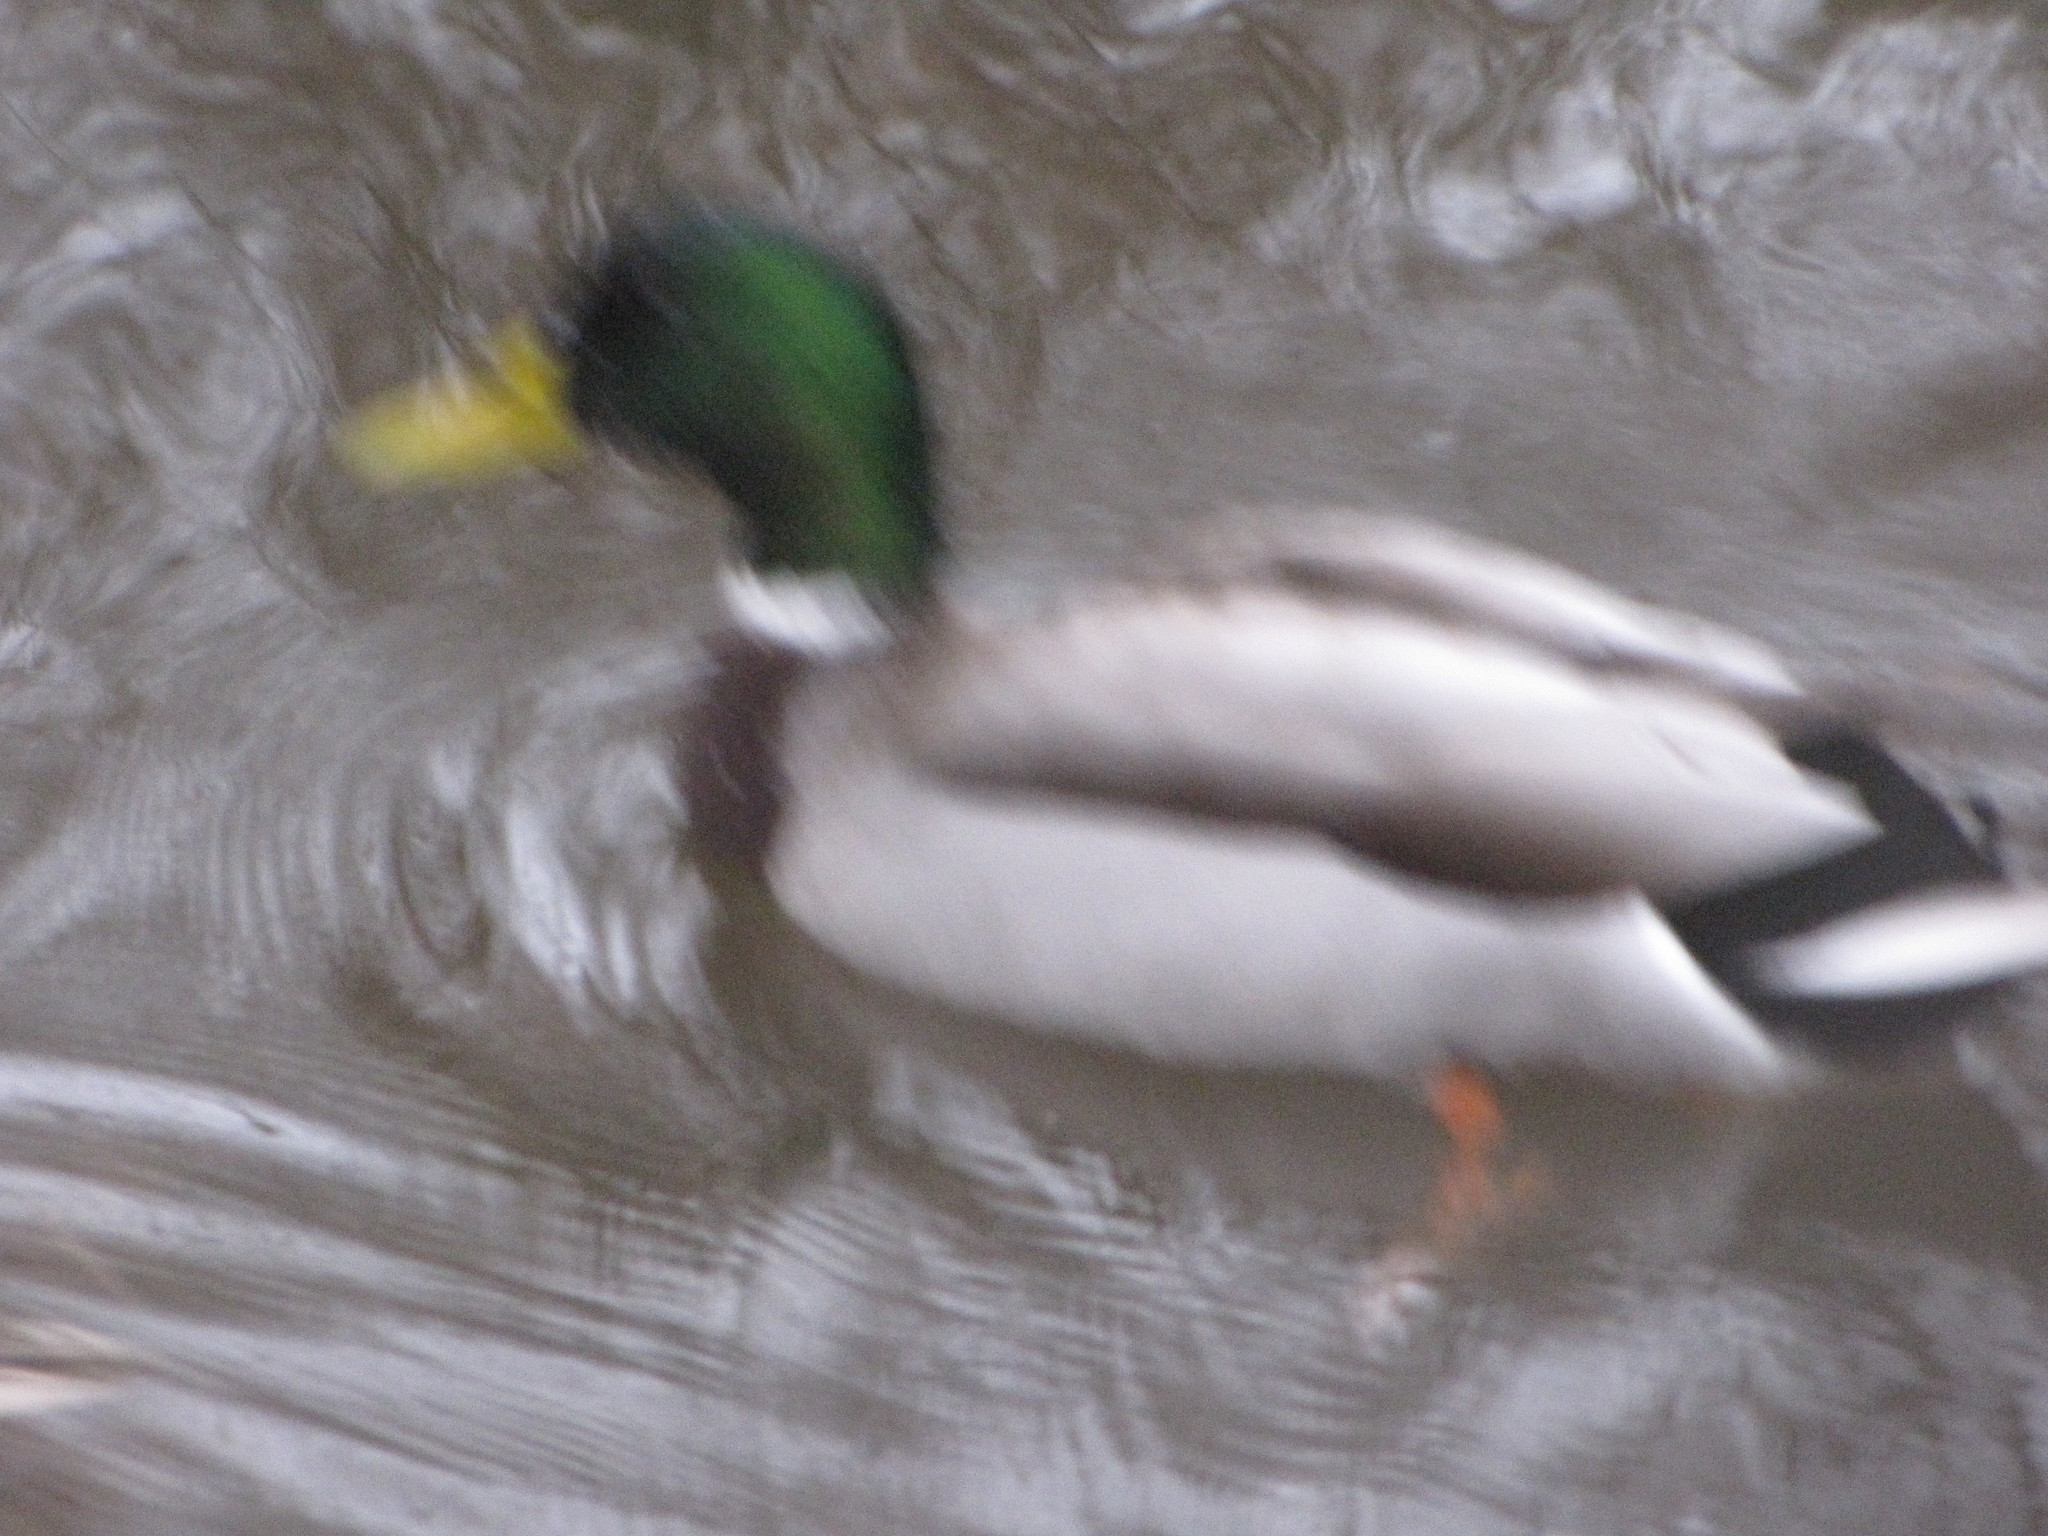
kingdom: Animalia
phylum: Chordata
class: Aves
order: Anseriformes
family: Anatidae
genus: Anas
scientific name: Anas platyrhynchos
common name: Mallard
